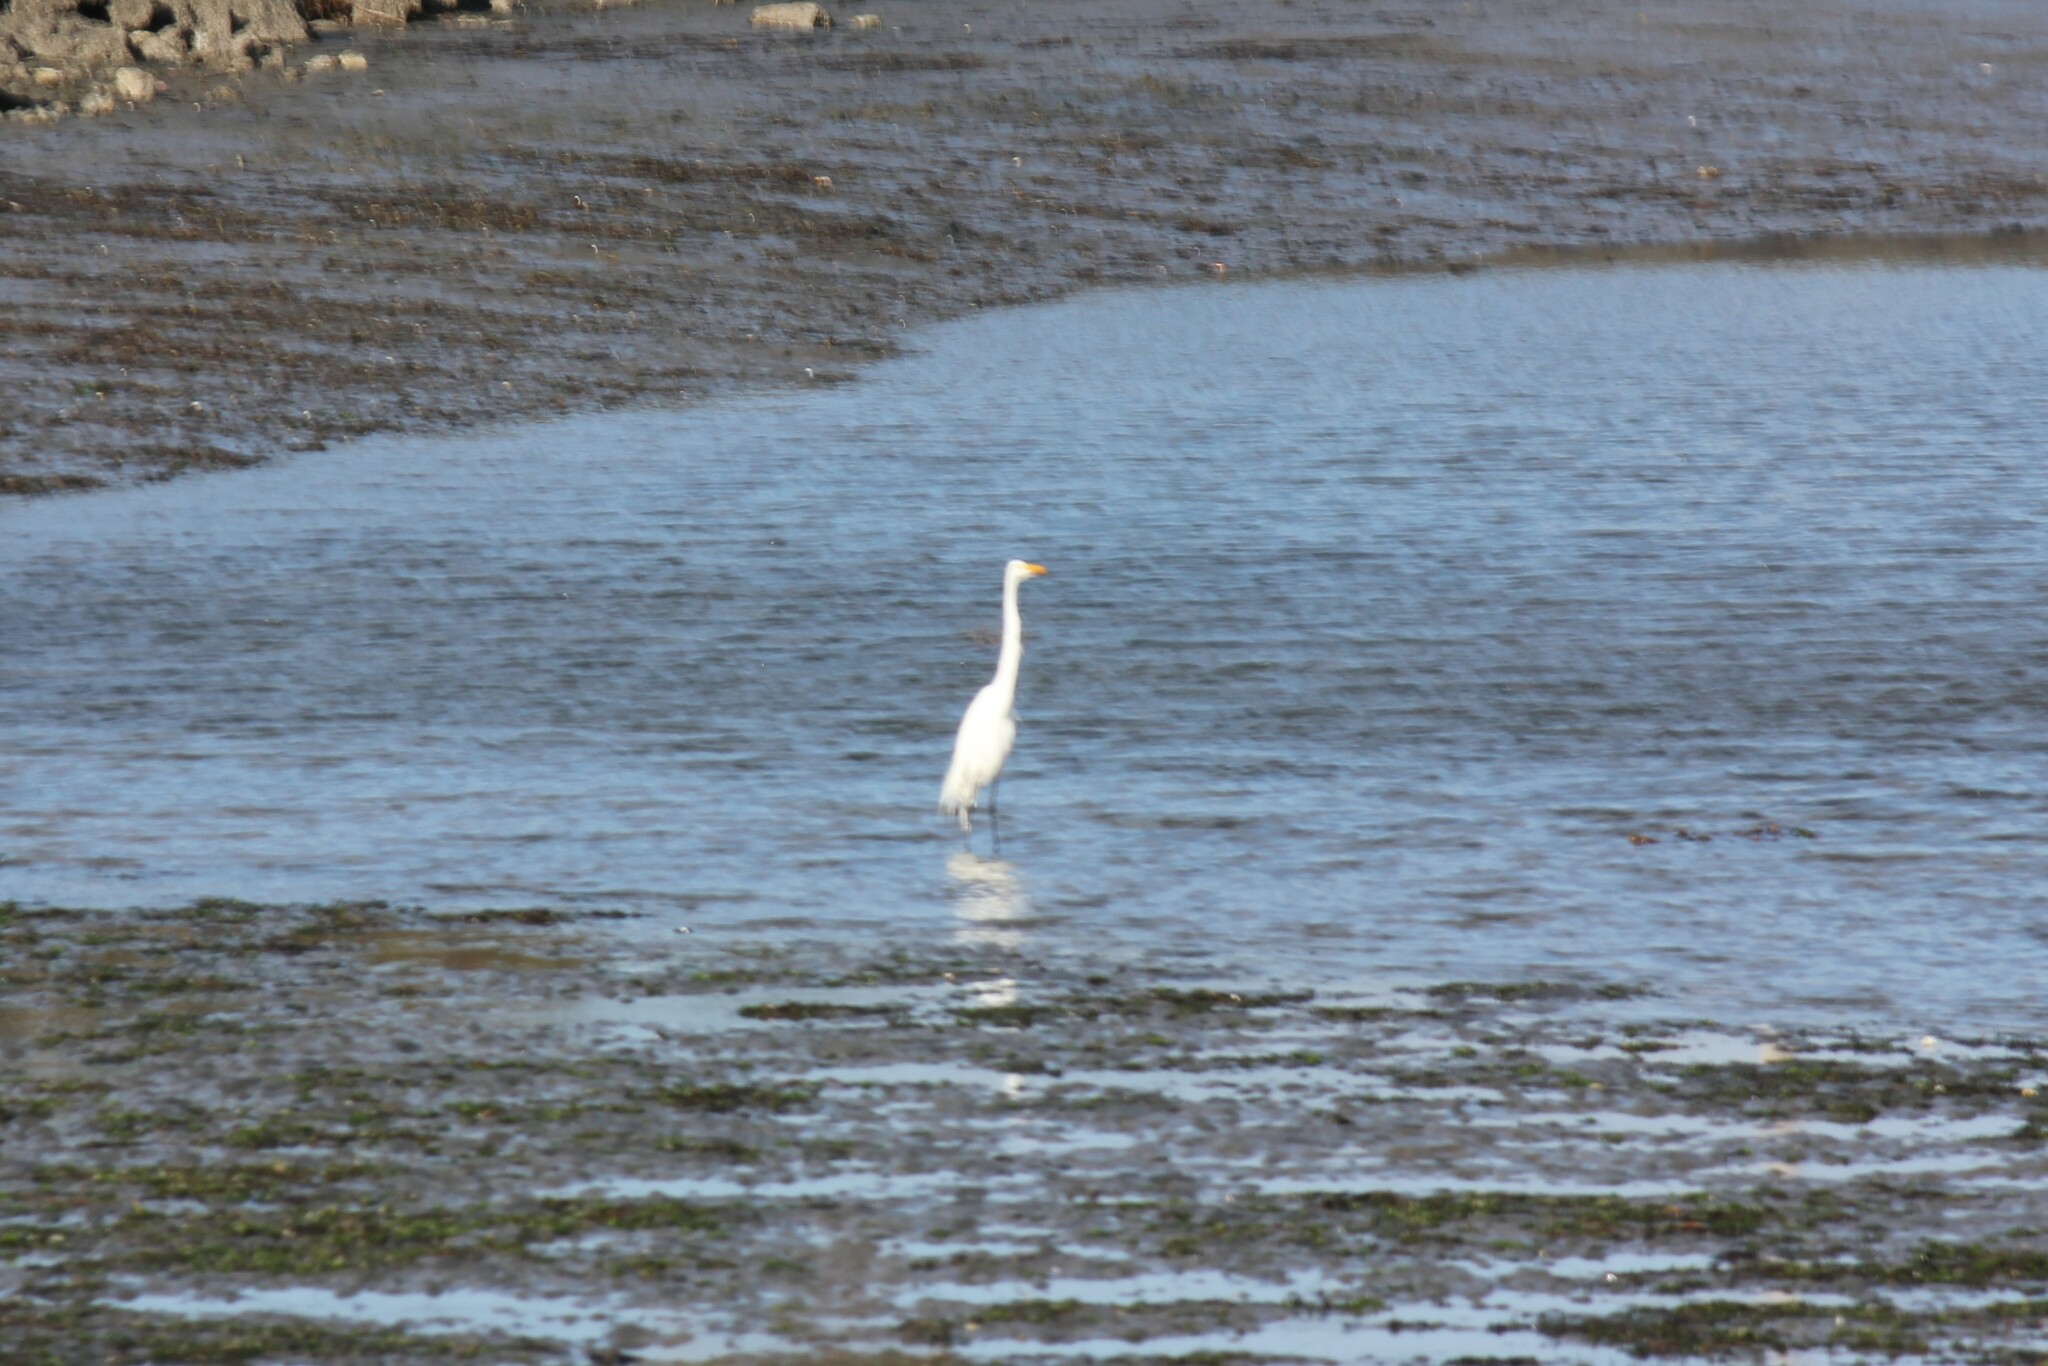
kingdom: Animalia
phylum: Chordata
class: Aves
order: Pelecaniformes
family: Ardeidae
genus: Ardea
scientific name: Ardea alba
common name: Great egret
